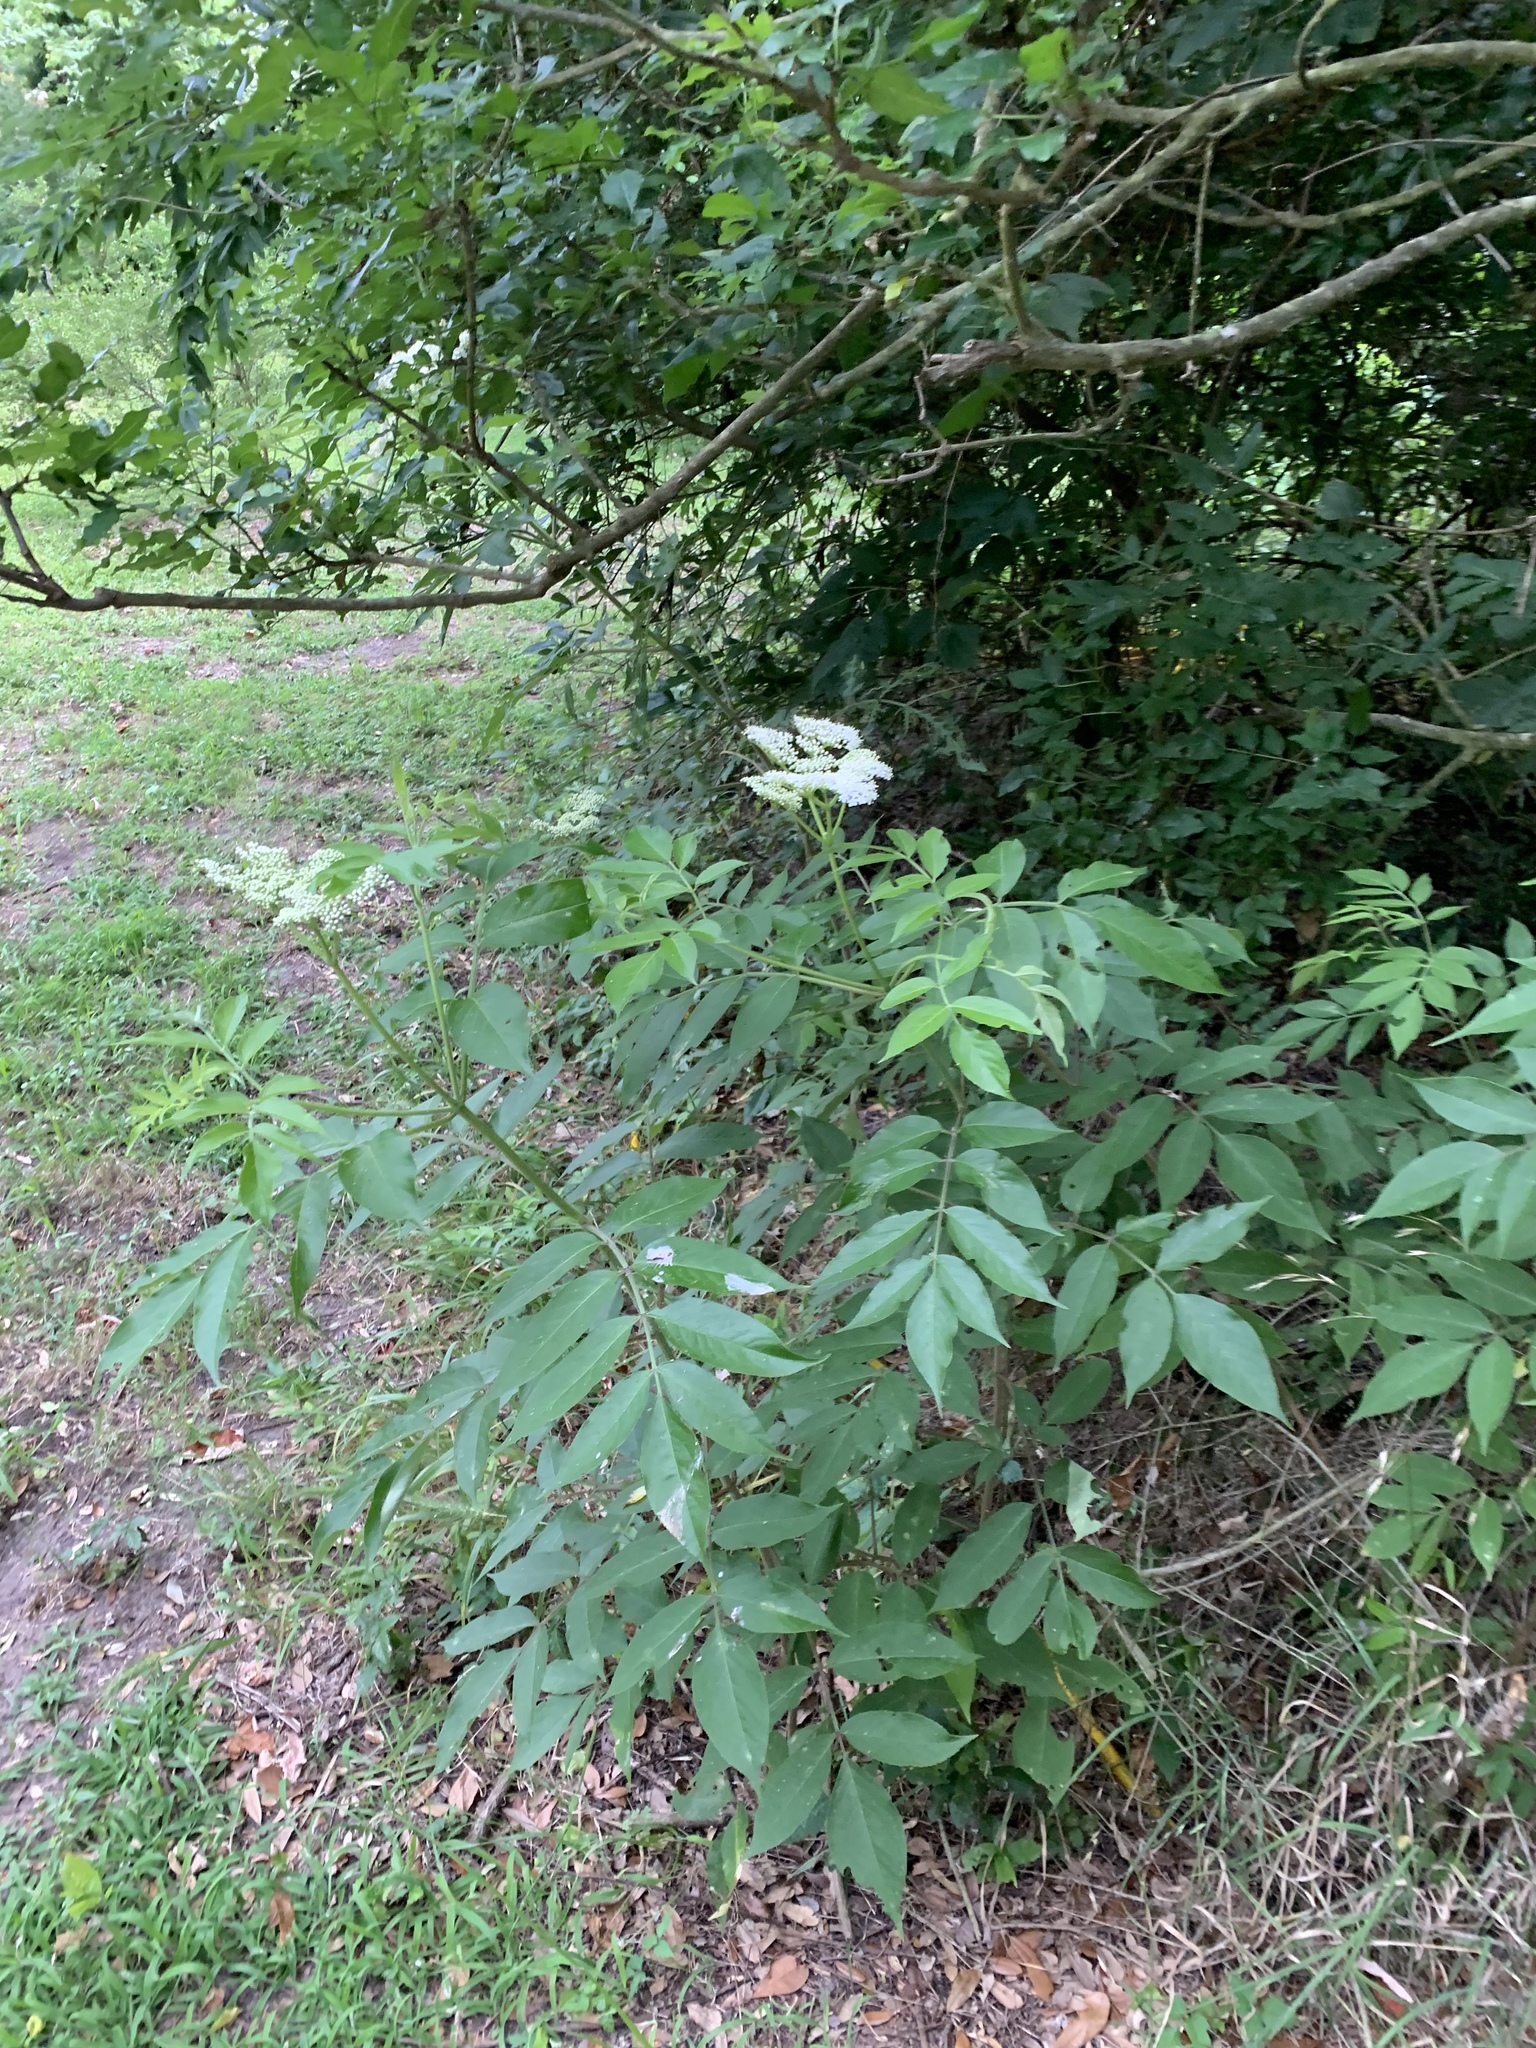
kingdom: Plantae
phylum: Tracheophyta
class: Magnoliopsida
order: Dipsacales
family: Viburnaceae
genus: Sambucus
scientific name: Sambucus canadensis
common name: American elder
